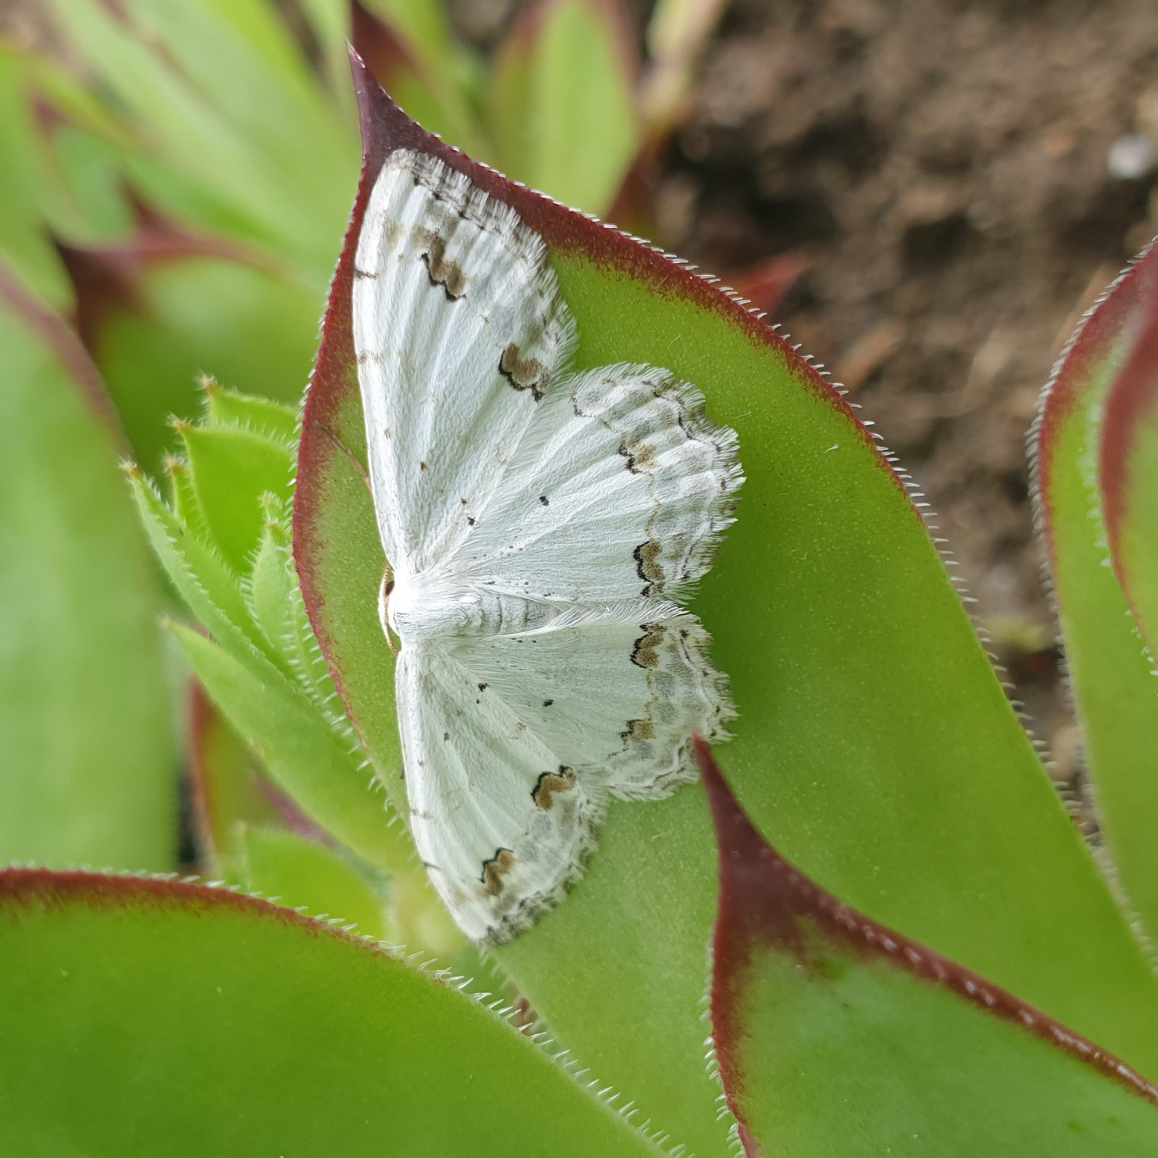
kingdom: Animalia
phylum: Arthropoda
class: Insecta
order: Lepidoptera
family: Geometridae
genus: Scopula
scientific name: Scopula ornata
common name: Lace border
